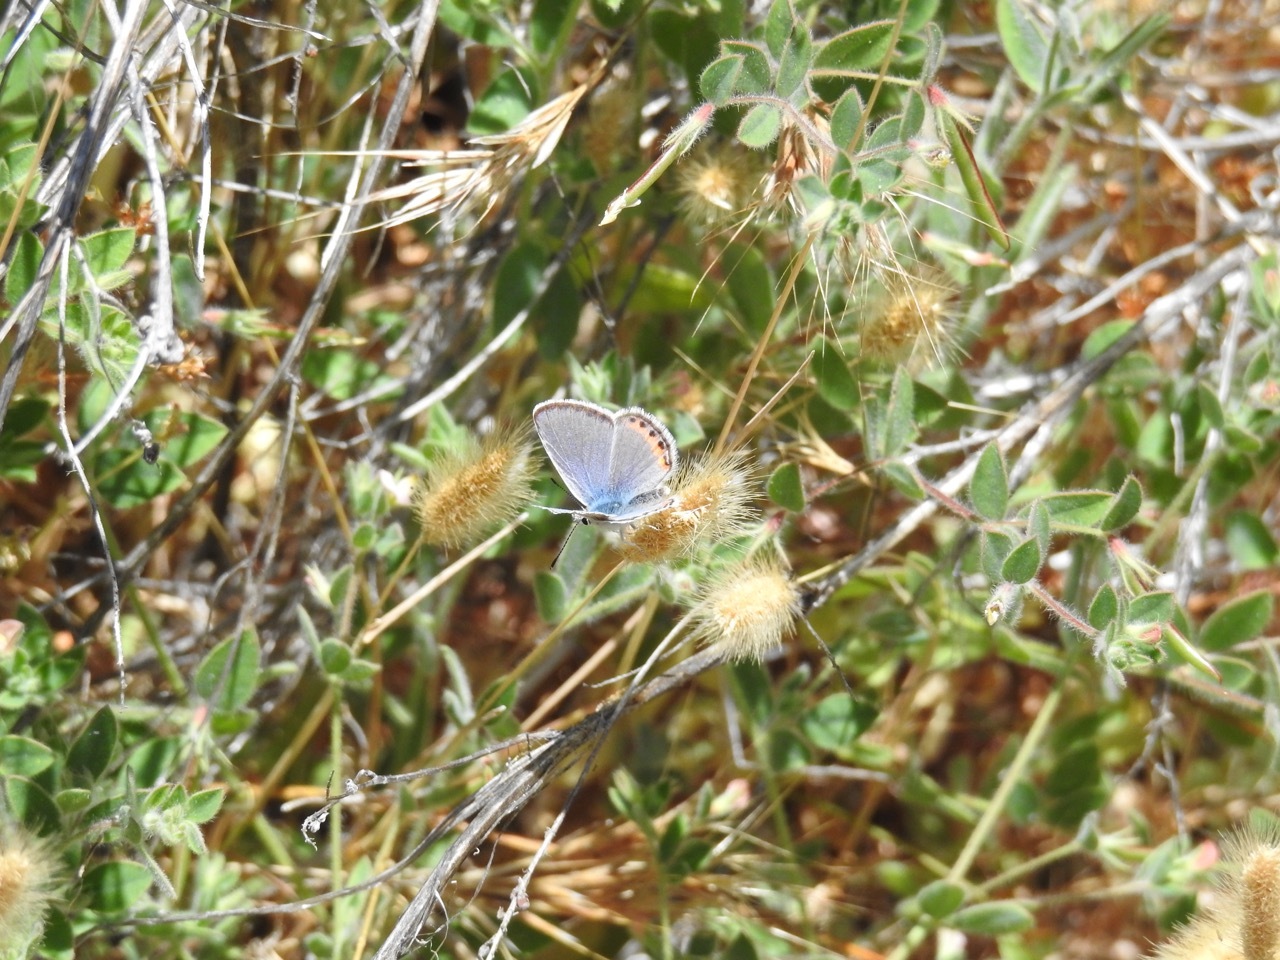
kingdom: Animalia
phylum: Arthropoda
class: Insecta
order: Lepidoptera
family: Lycaenidae
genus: Icaricia
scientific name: Icaricia acmon
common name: Acmon blue
